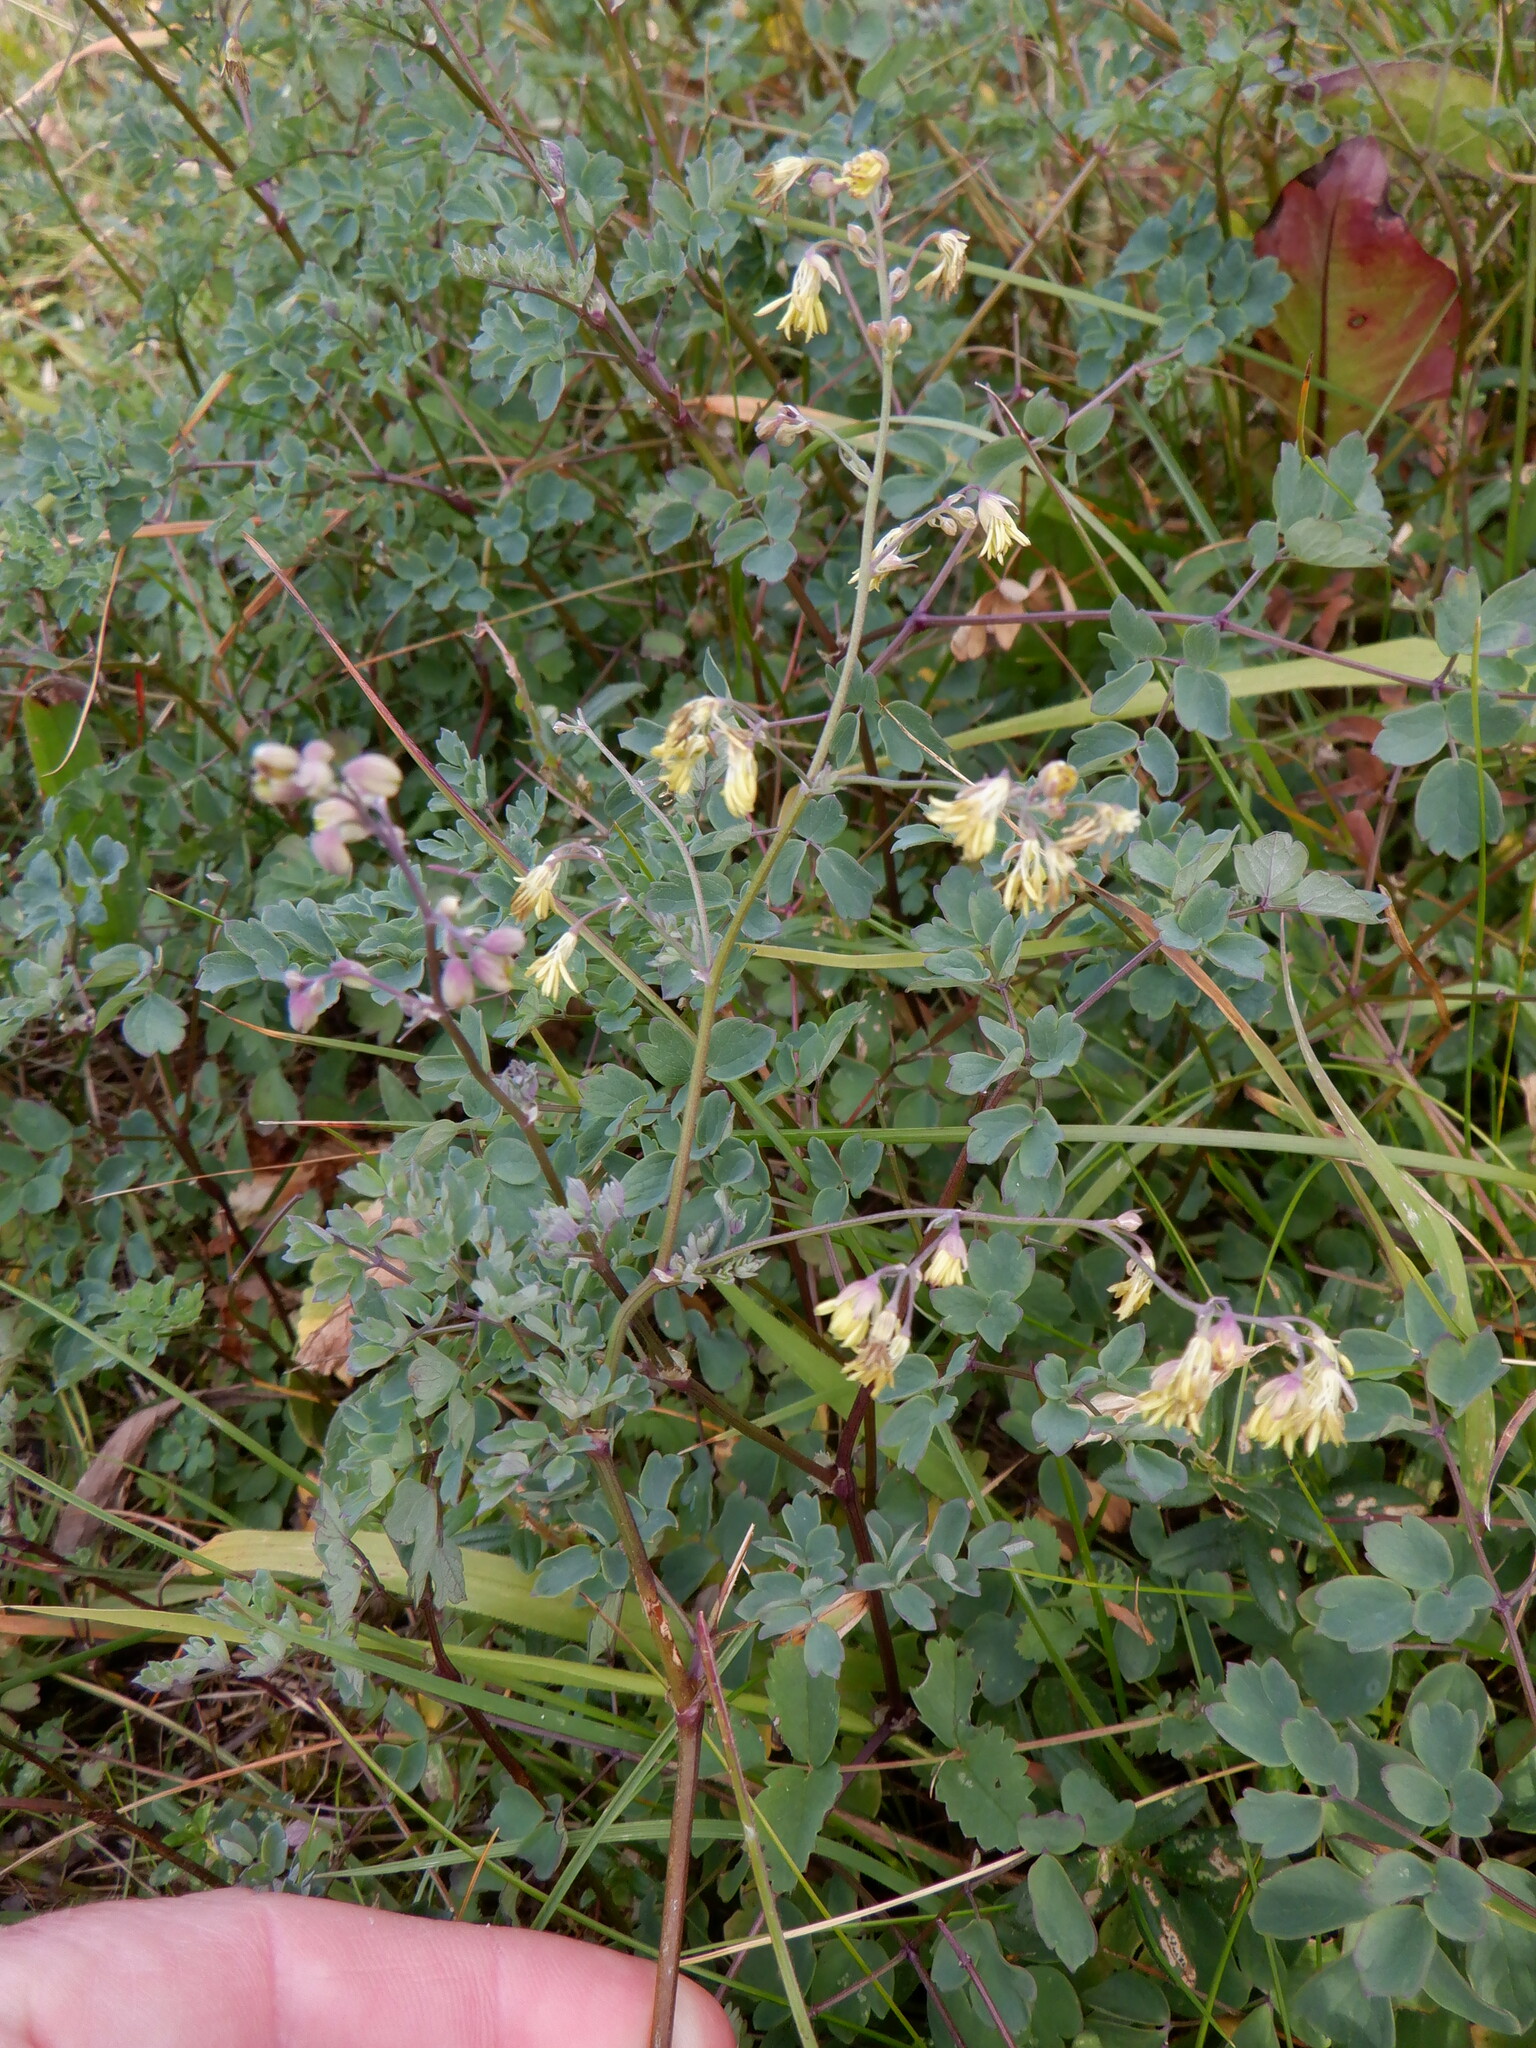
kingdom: Plantae
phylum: Tracheophyta
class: Magnoliopsida
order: Ranunculales
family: Ranunculaceae
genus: Thalictrum
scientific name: Thalictrum minus
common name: Lesser meadow-rue
